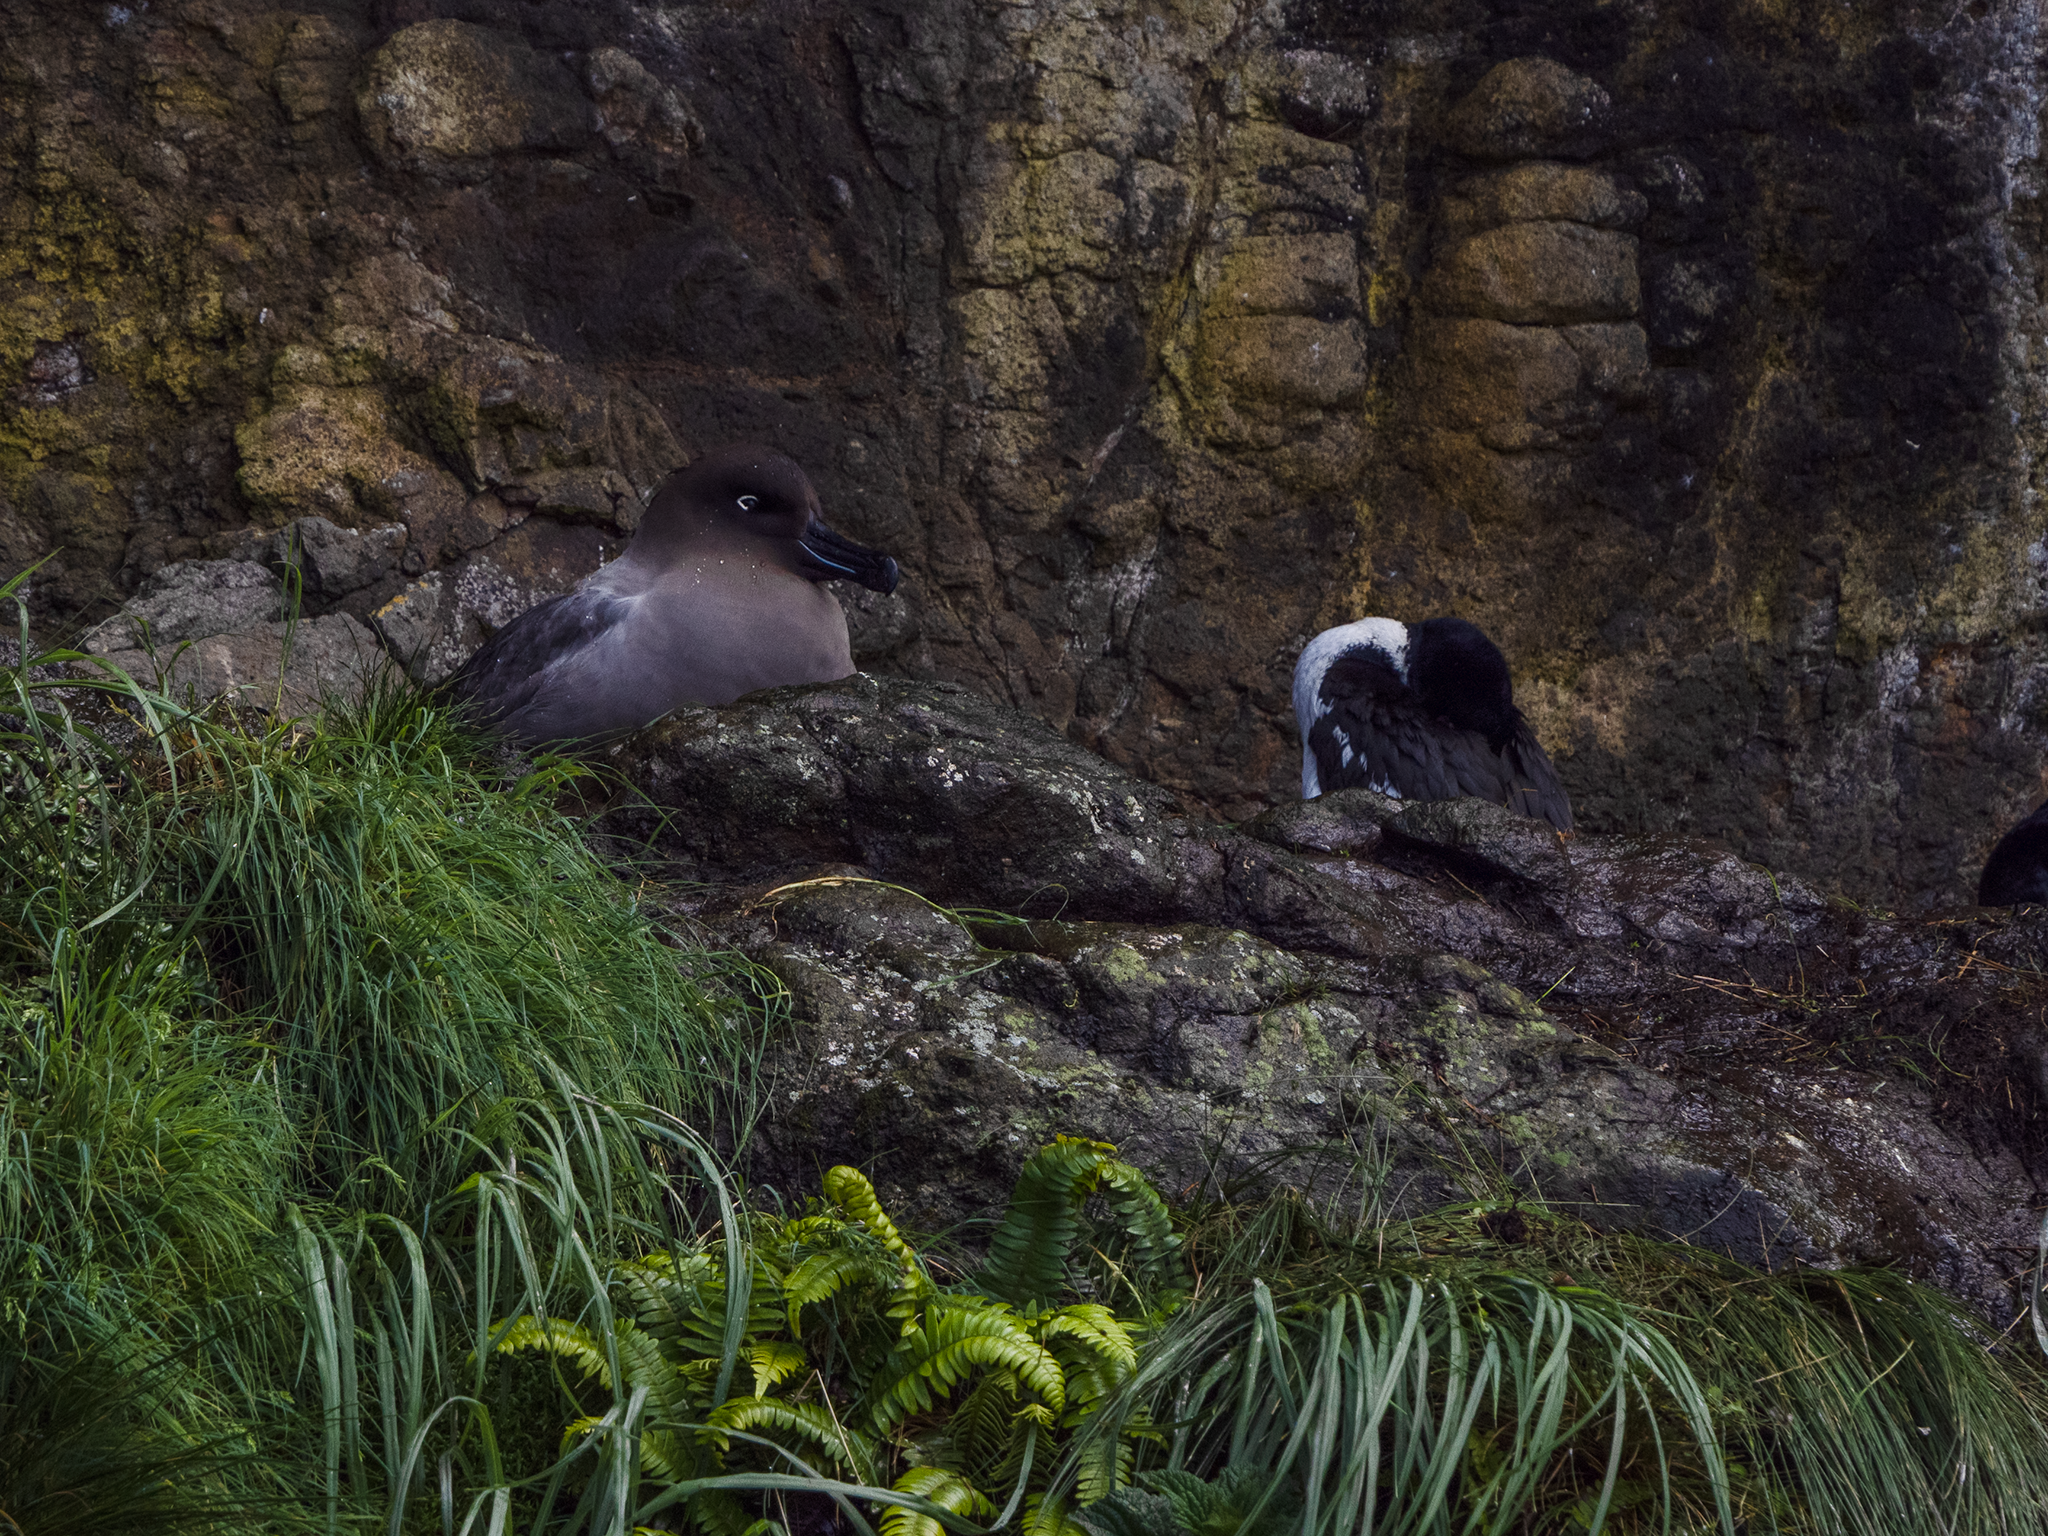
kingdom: Animalia
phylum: Chordata
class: Aves
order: Procellariiformes
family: Diomedeidae
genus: Phoebetria
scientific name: Phoebetria palpebrata
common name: Light-mantled albatross
